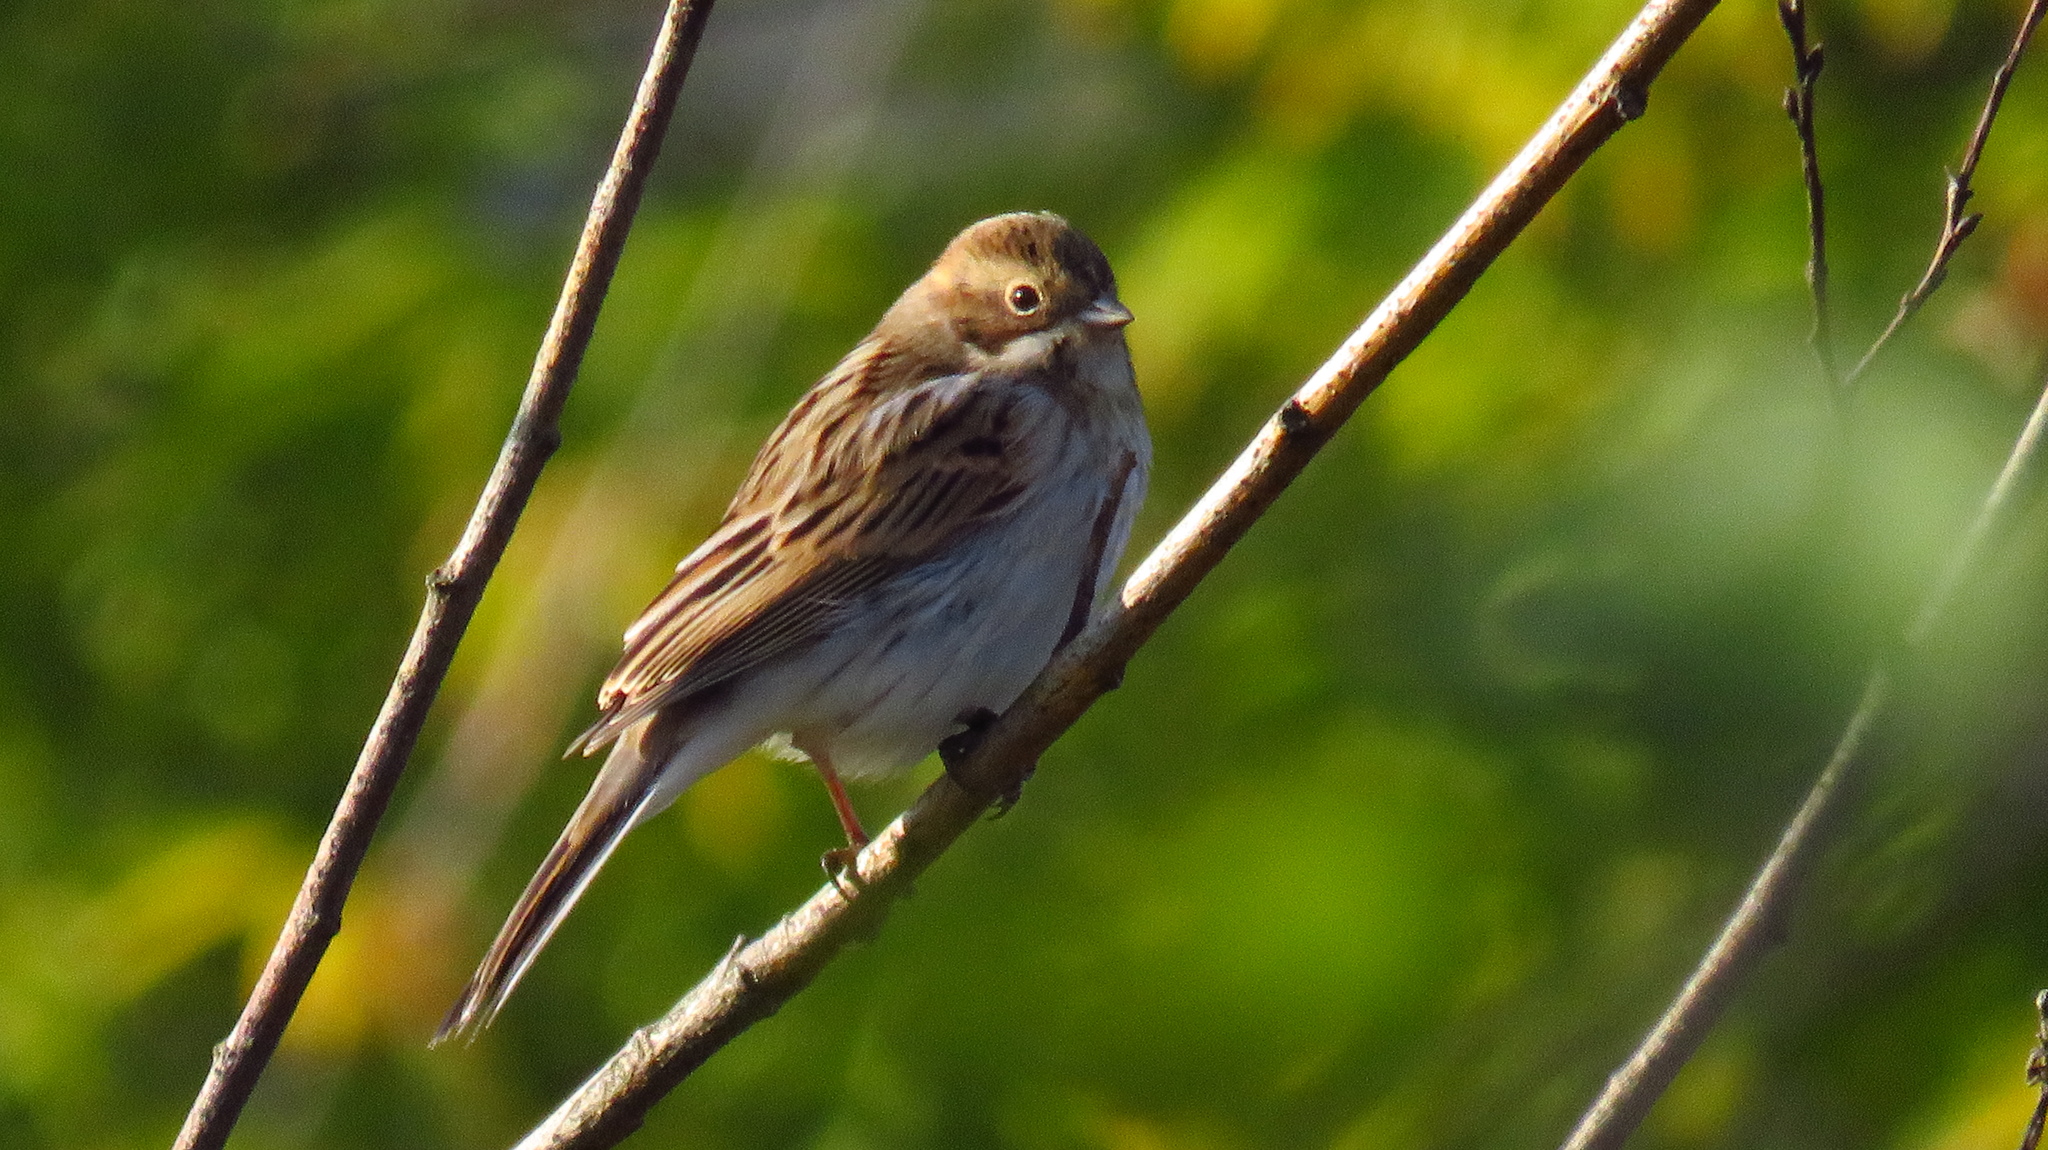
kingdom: Animalia
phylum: Chordata
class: Aves
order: Passeriformes
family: Emberizidae
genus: Emberiza
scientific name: Emberiza schoeniclus
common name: Reed bunting
